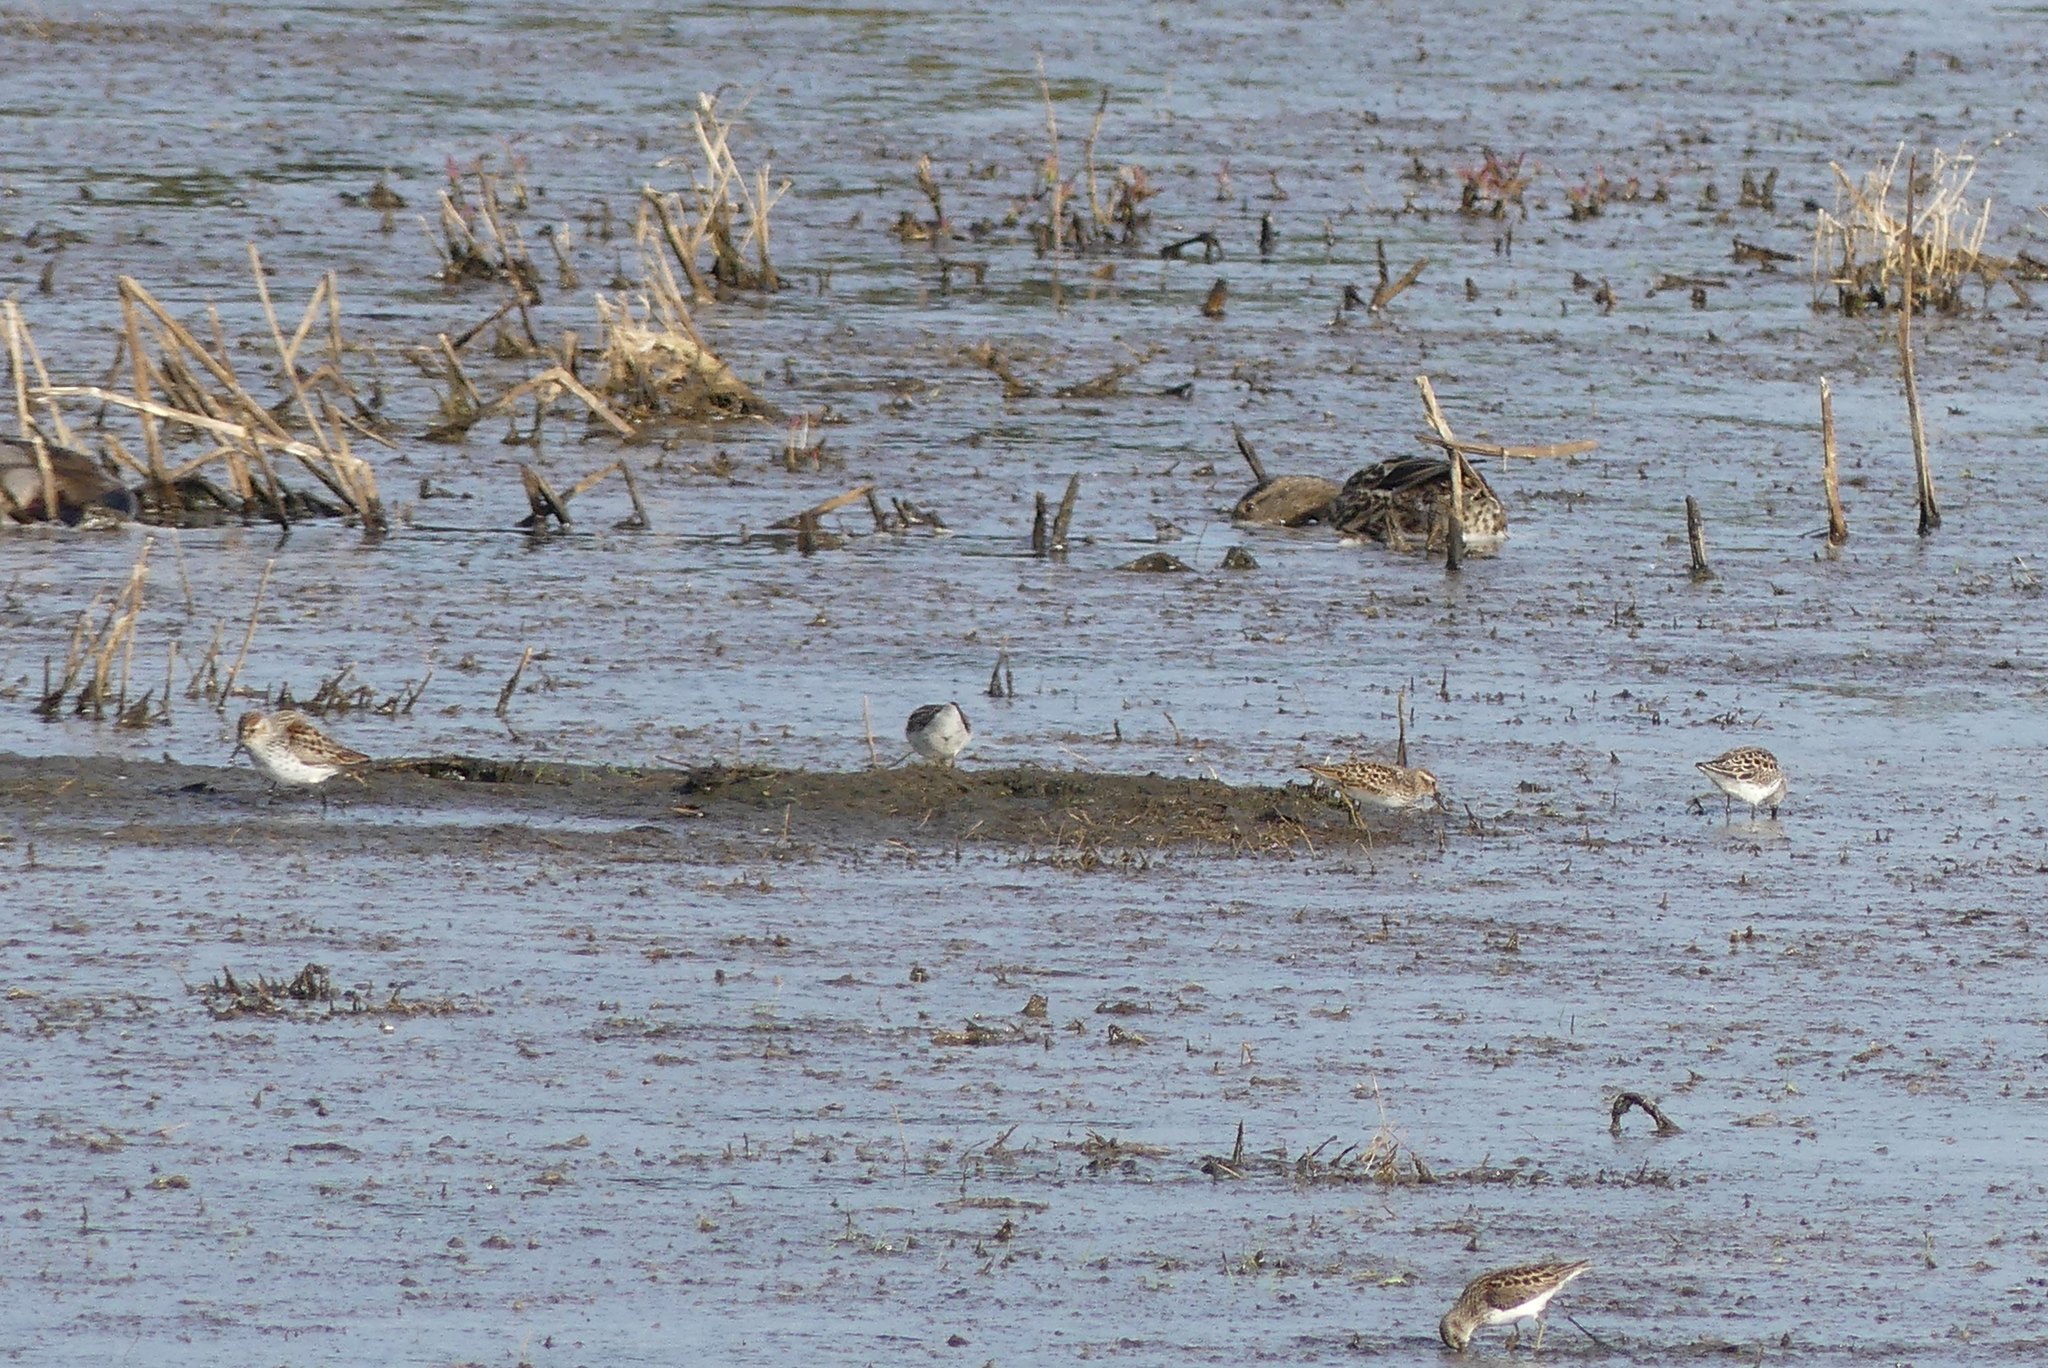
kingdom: Animalia
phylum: Chordata
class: Aves
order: Charadriiformes
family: Scolopacidae
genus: Calidris
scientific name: Calidris minutilla
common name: Least sandpiper
